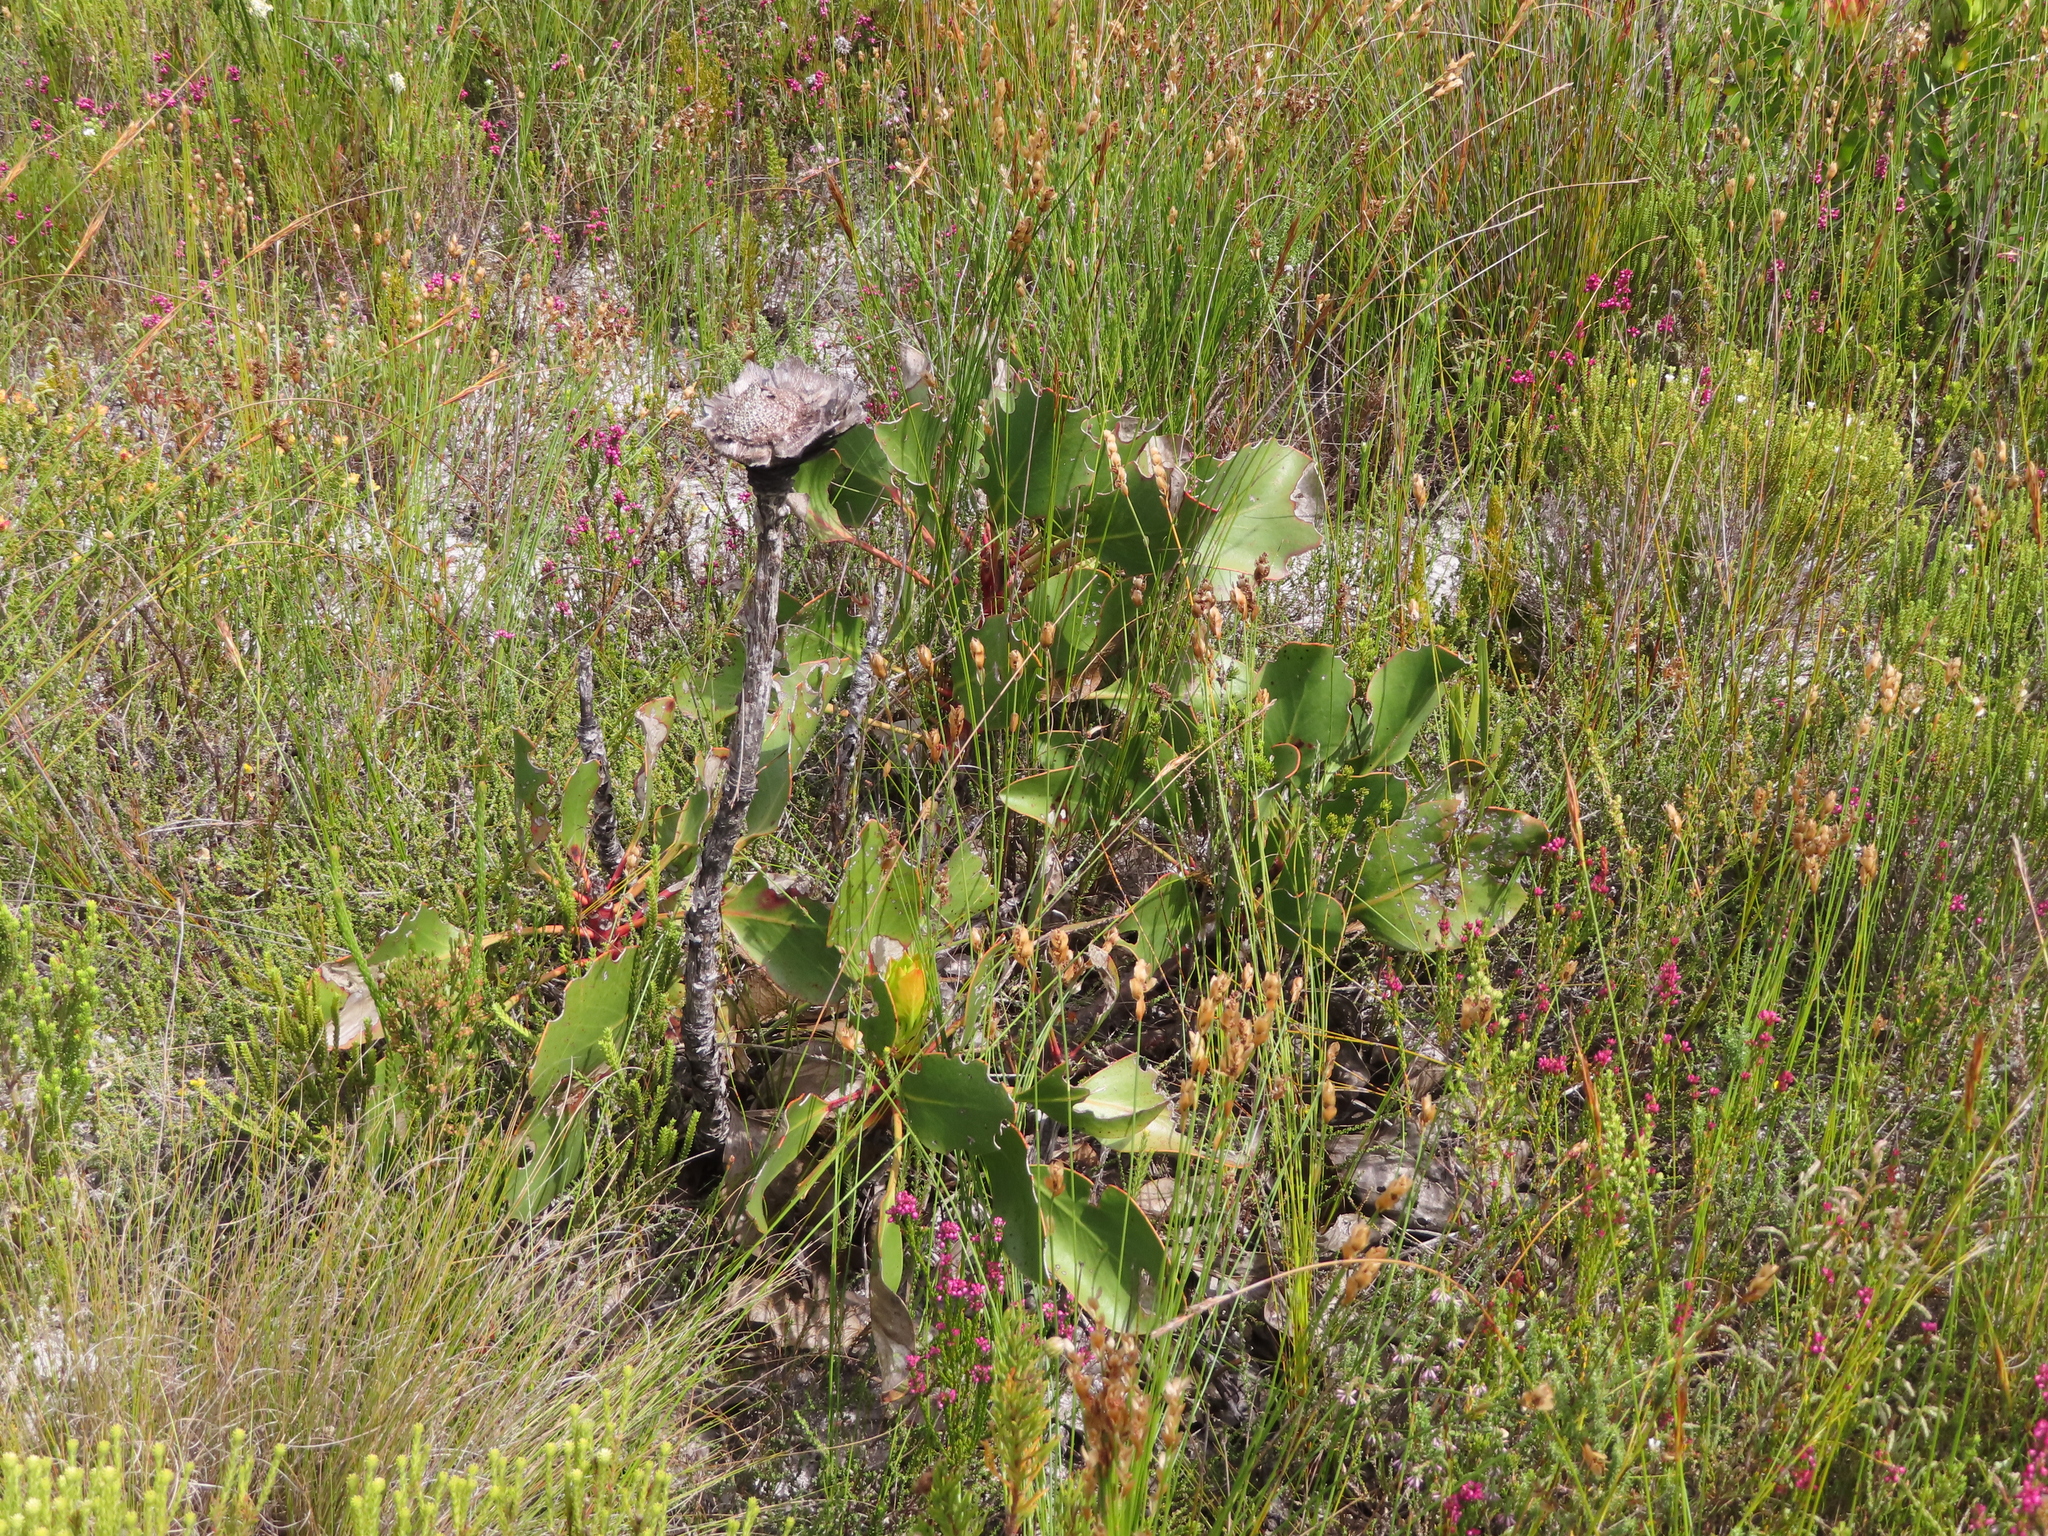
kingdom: Plantae
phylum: Tracheophyta
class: Magnoliopsida
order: Proteales
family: Proteaceae
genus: Protea
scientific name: Protea cynaroides
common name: King protea
